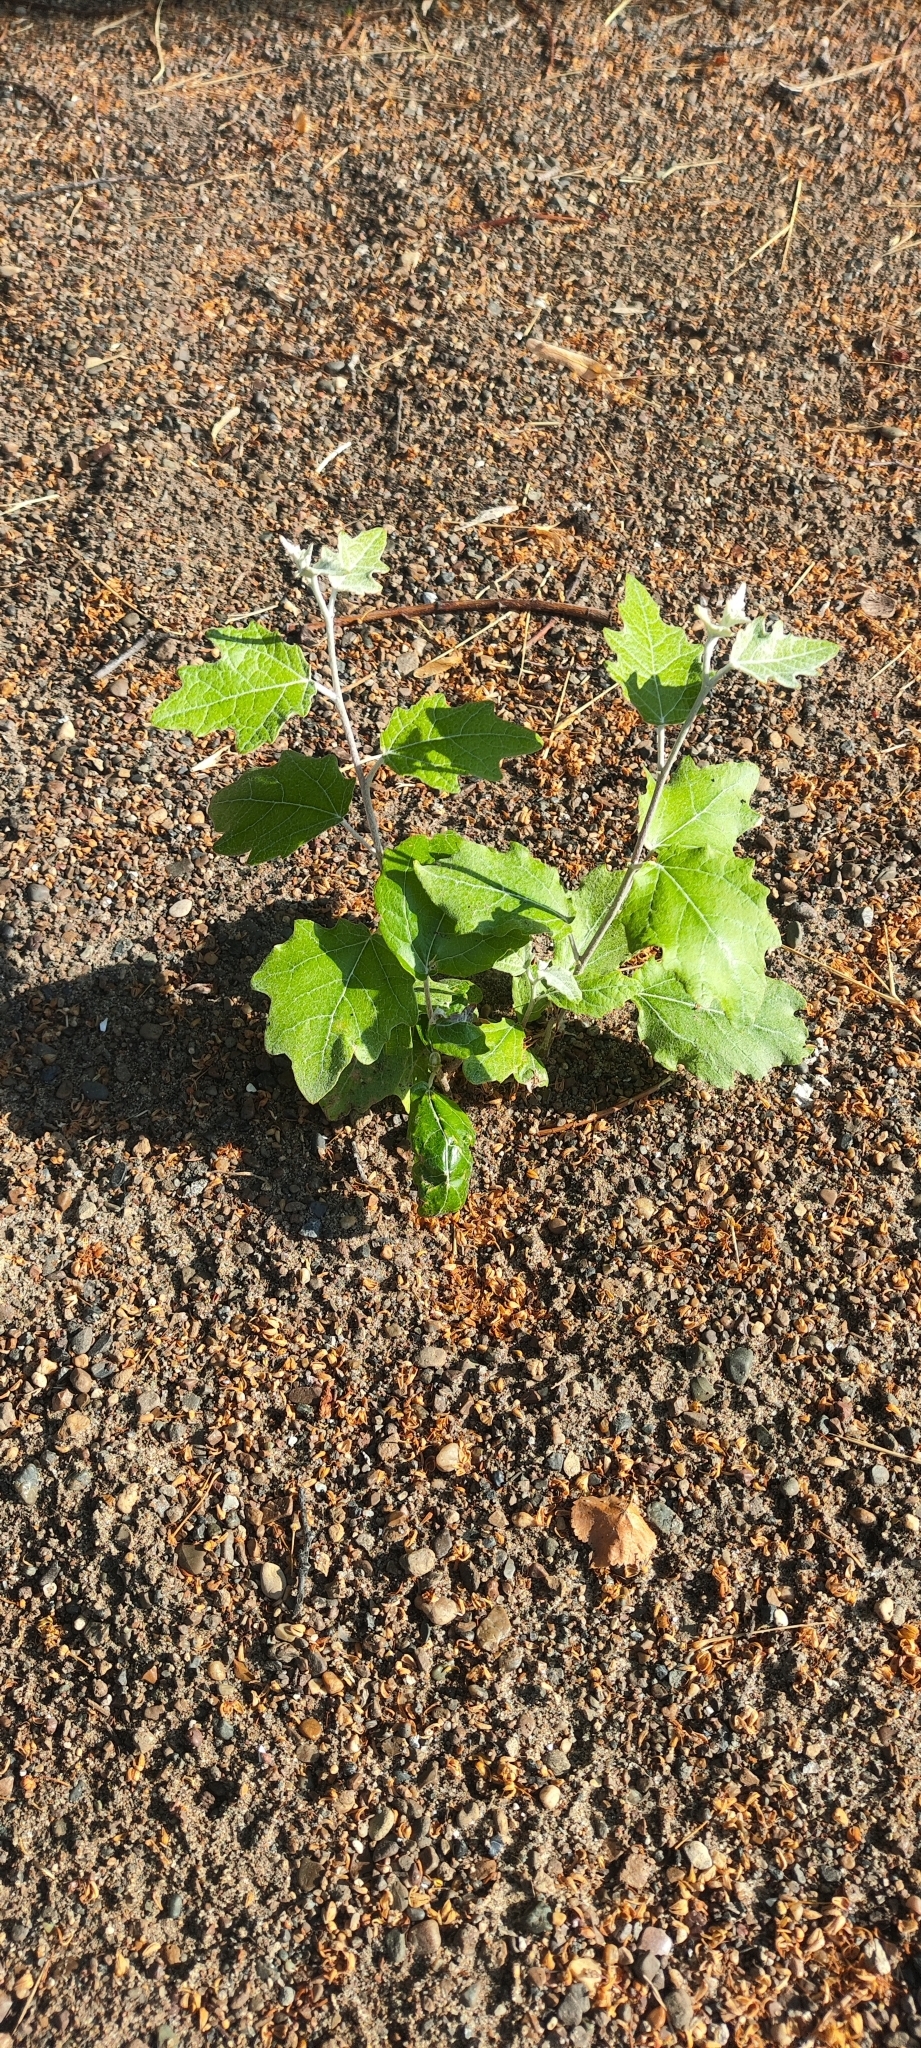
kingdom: Plantae
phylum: Tracheophyta
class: Magnoliopsida
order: Malpighiales
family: Salicaceae
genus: Populus
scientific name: Populus alba
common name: White poplar
